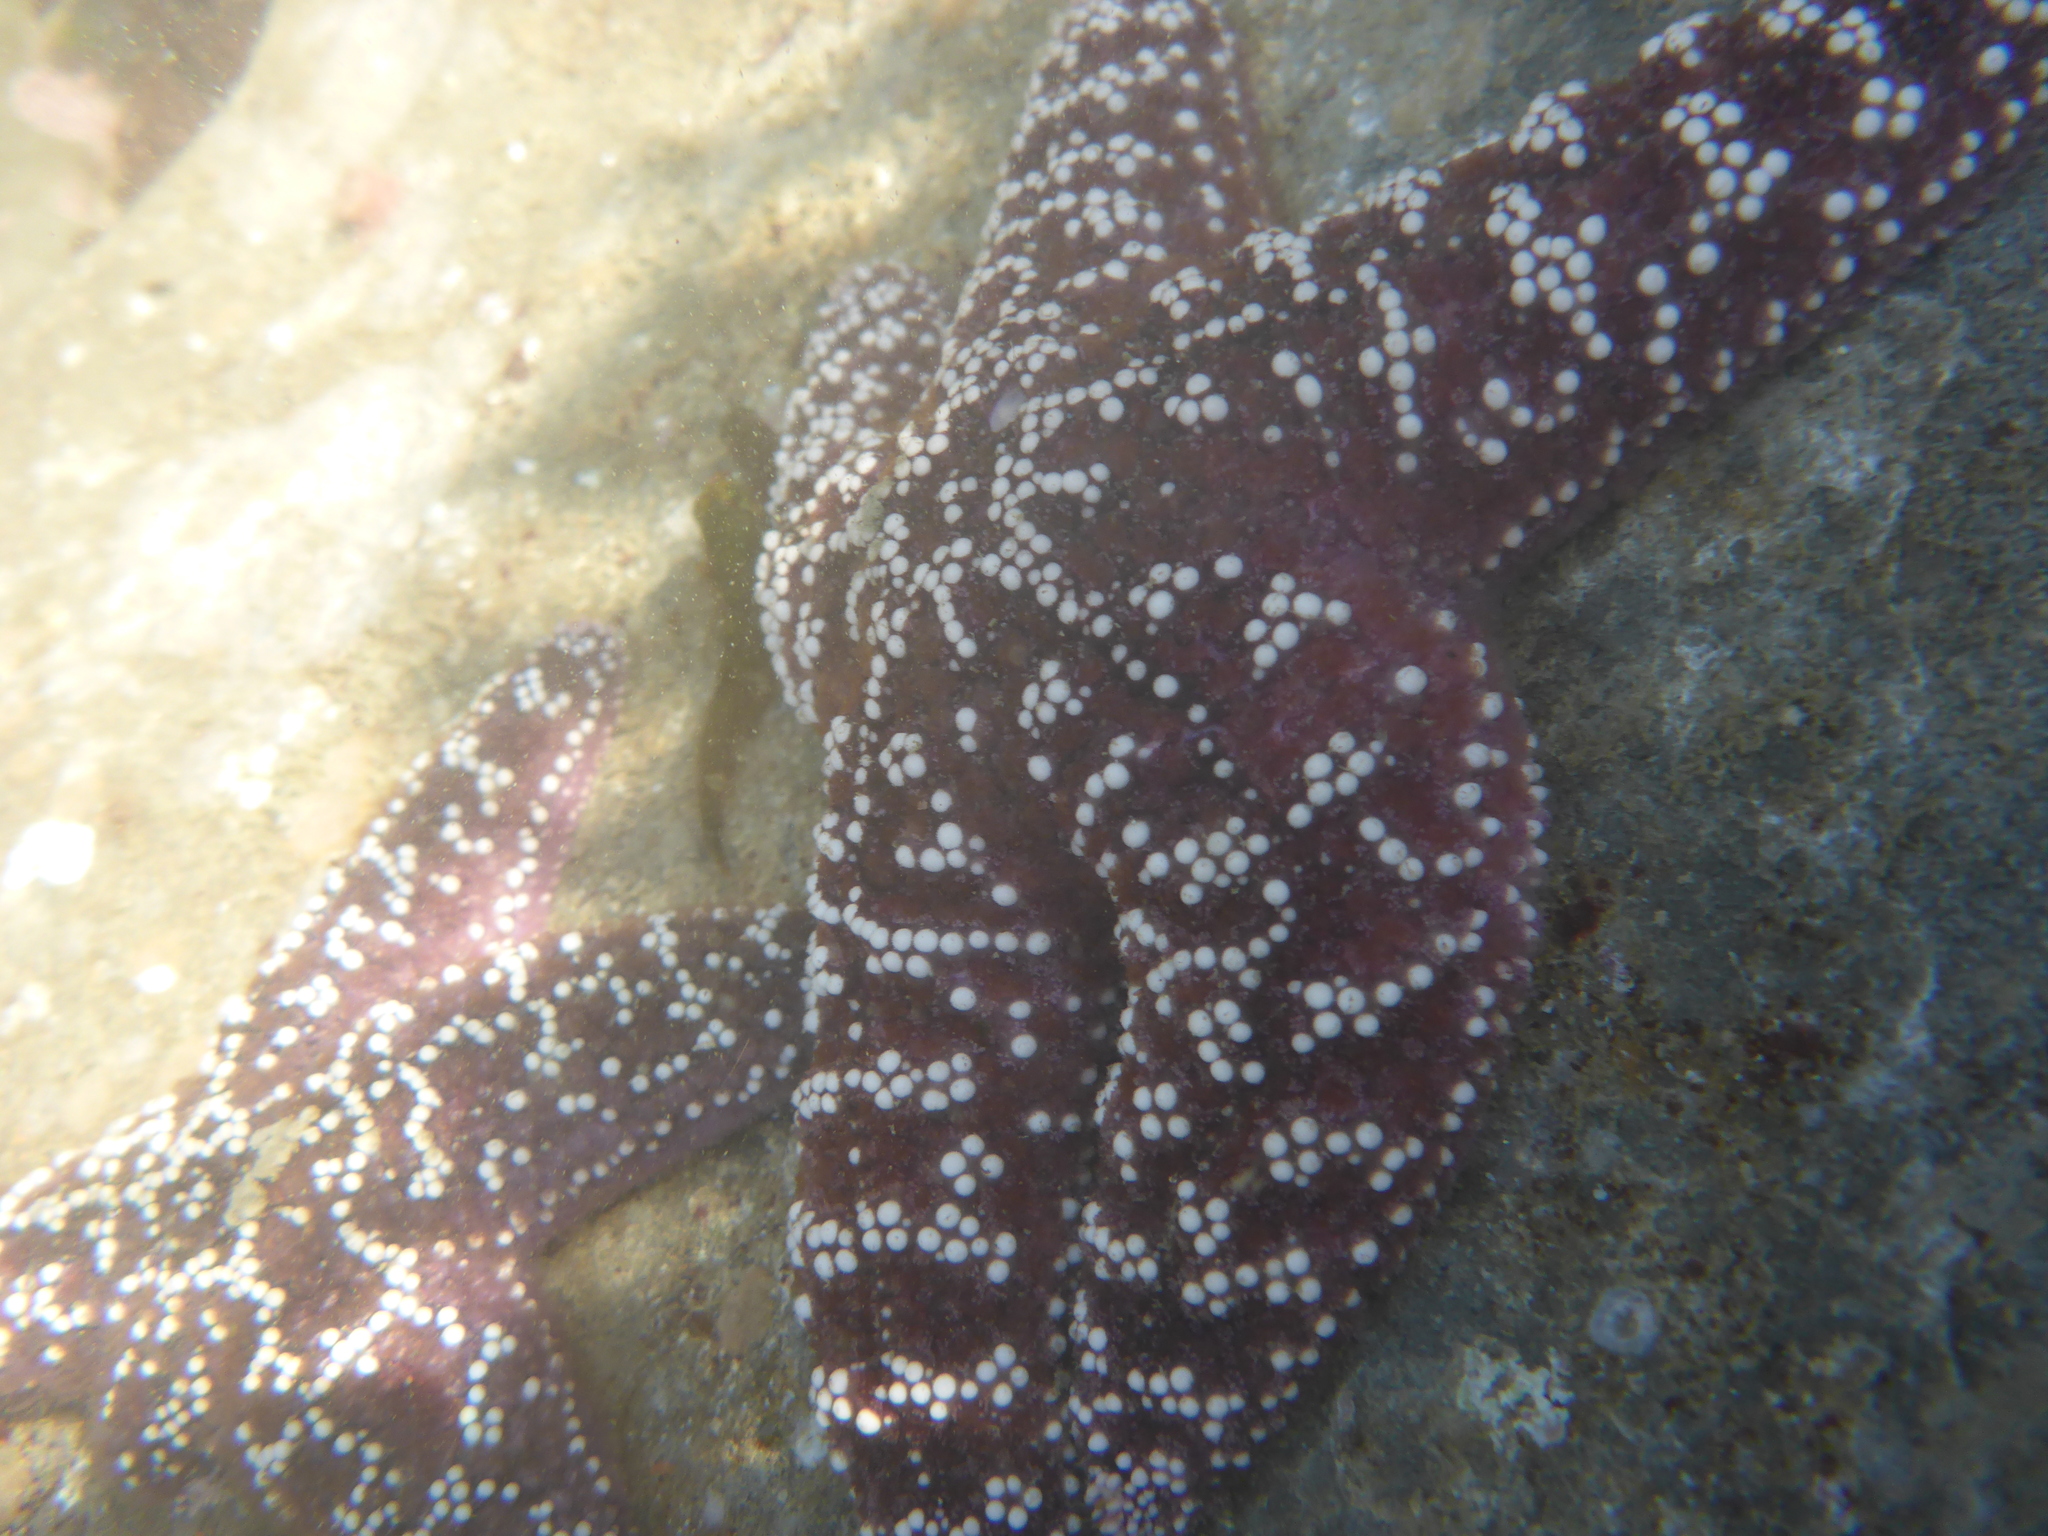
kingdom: Animalia
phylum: Echinodermata
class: Asteroidea
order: Forcipulatida
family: Asteriidae
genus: Pisaster
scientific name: Pisaster ochraceus
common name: Ochre stars
